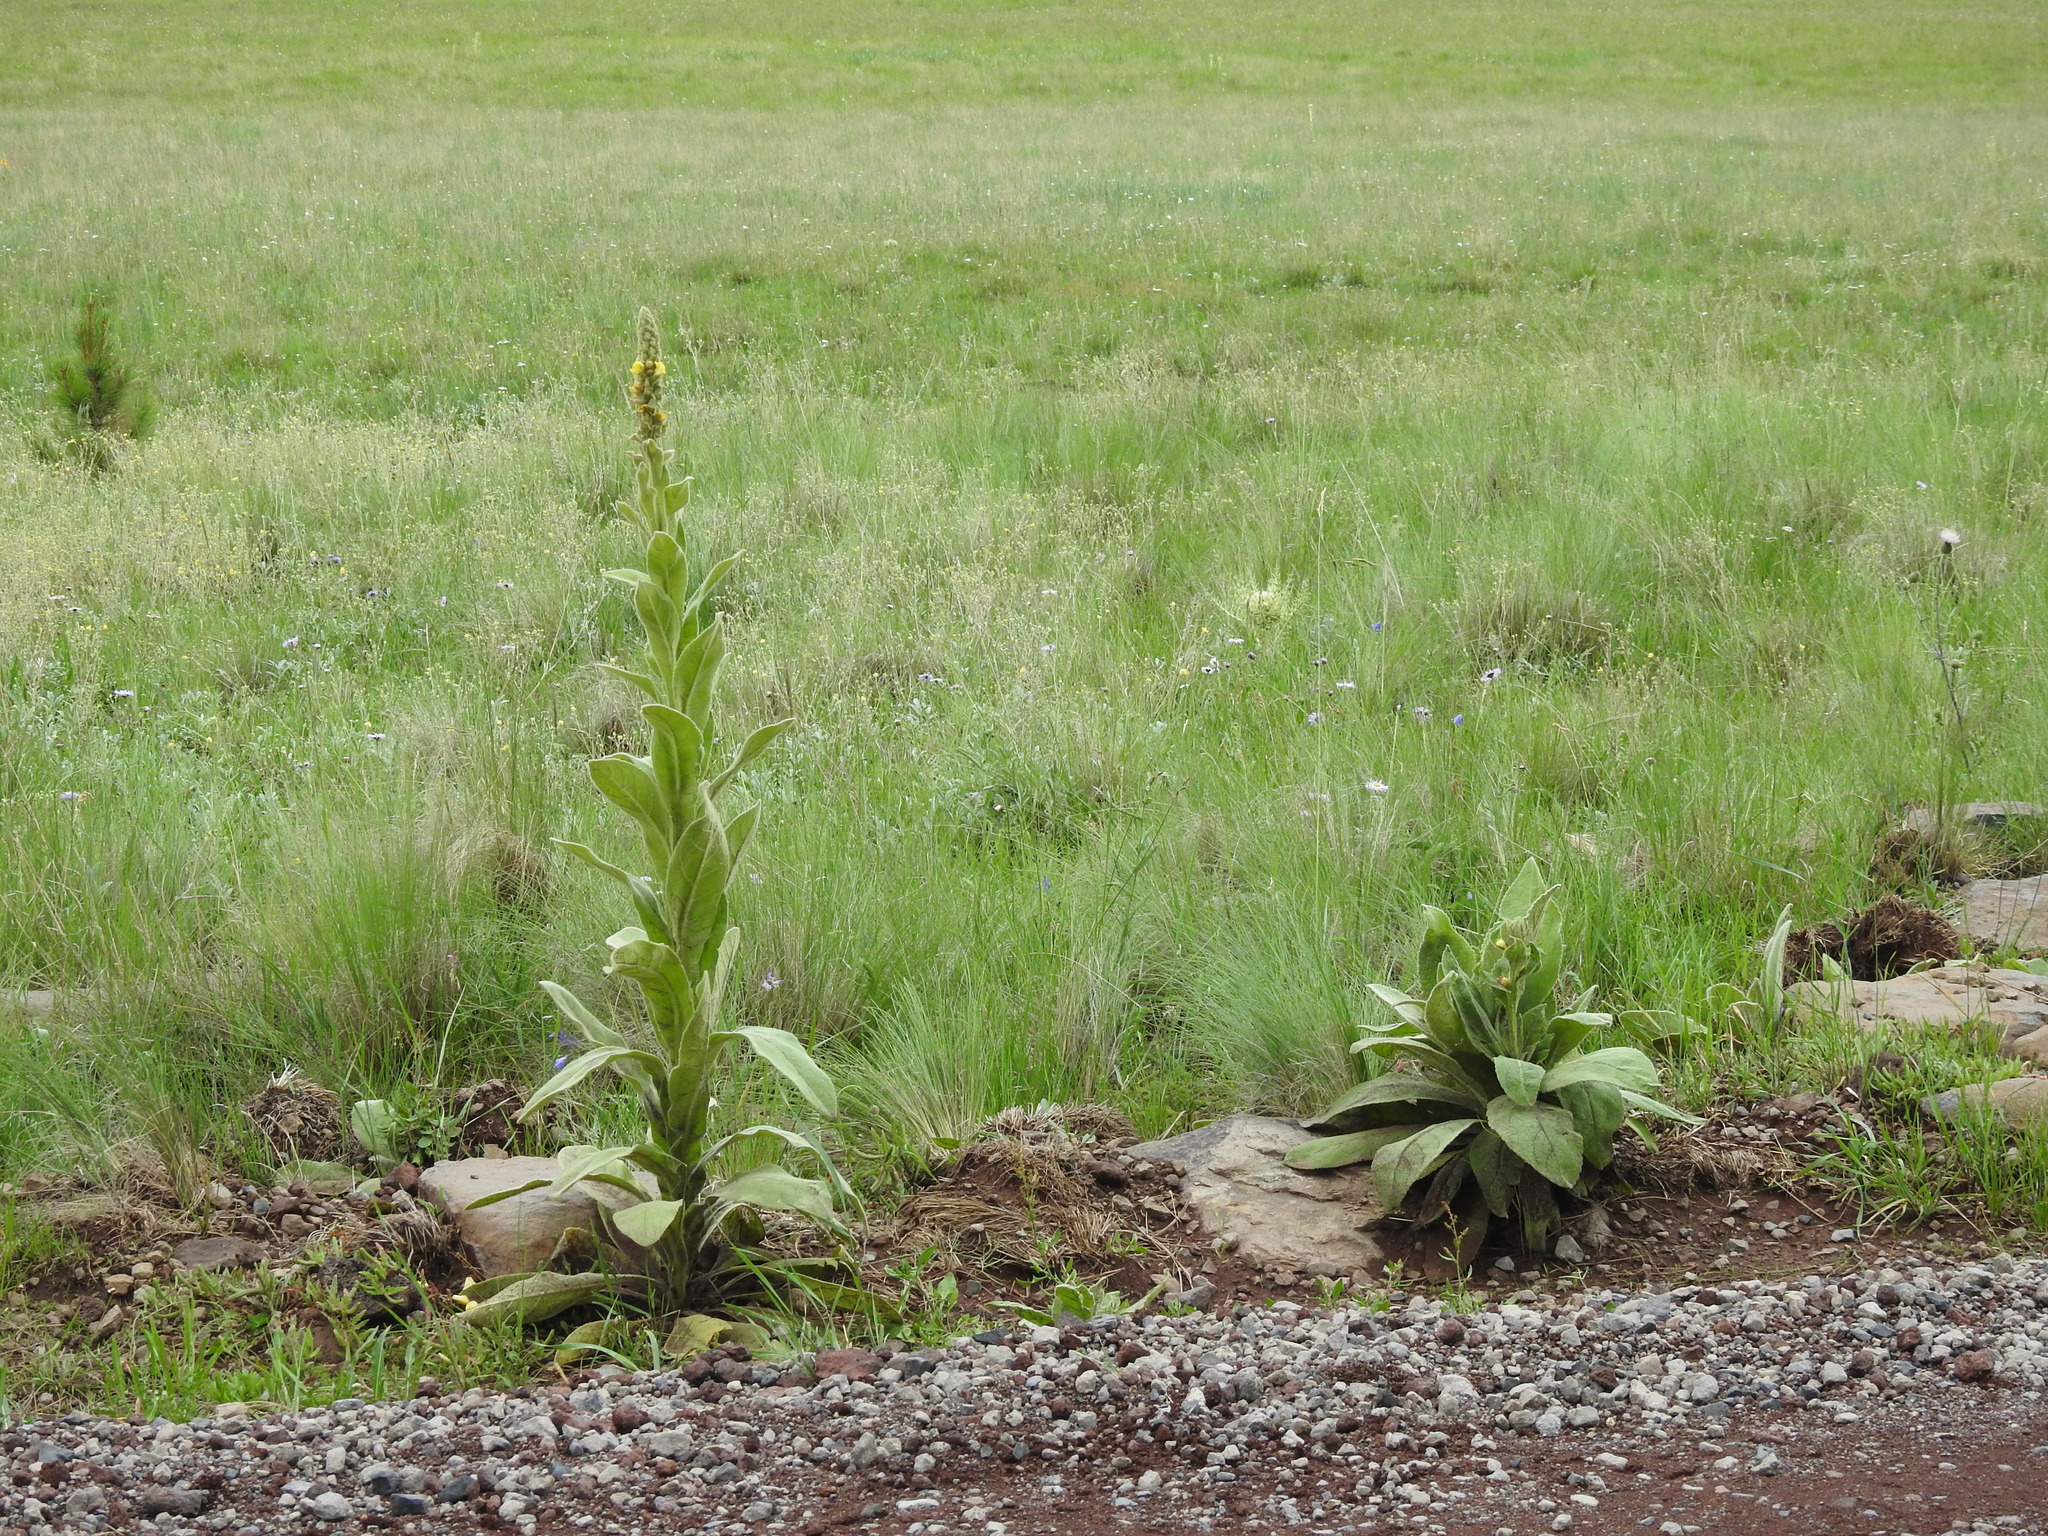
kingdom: Plantae
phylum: Tracheophyta
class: Magnoliopsida
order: Lamiales
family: Scrophulariaceae
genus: Verbascum
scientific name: Verbascum thapsus
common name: Common mullein
